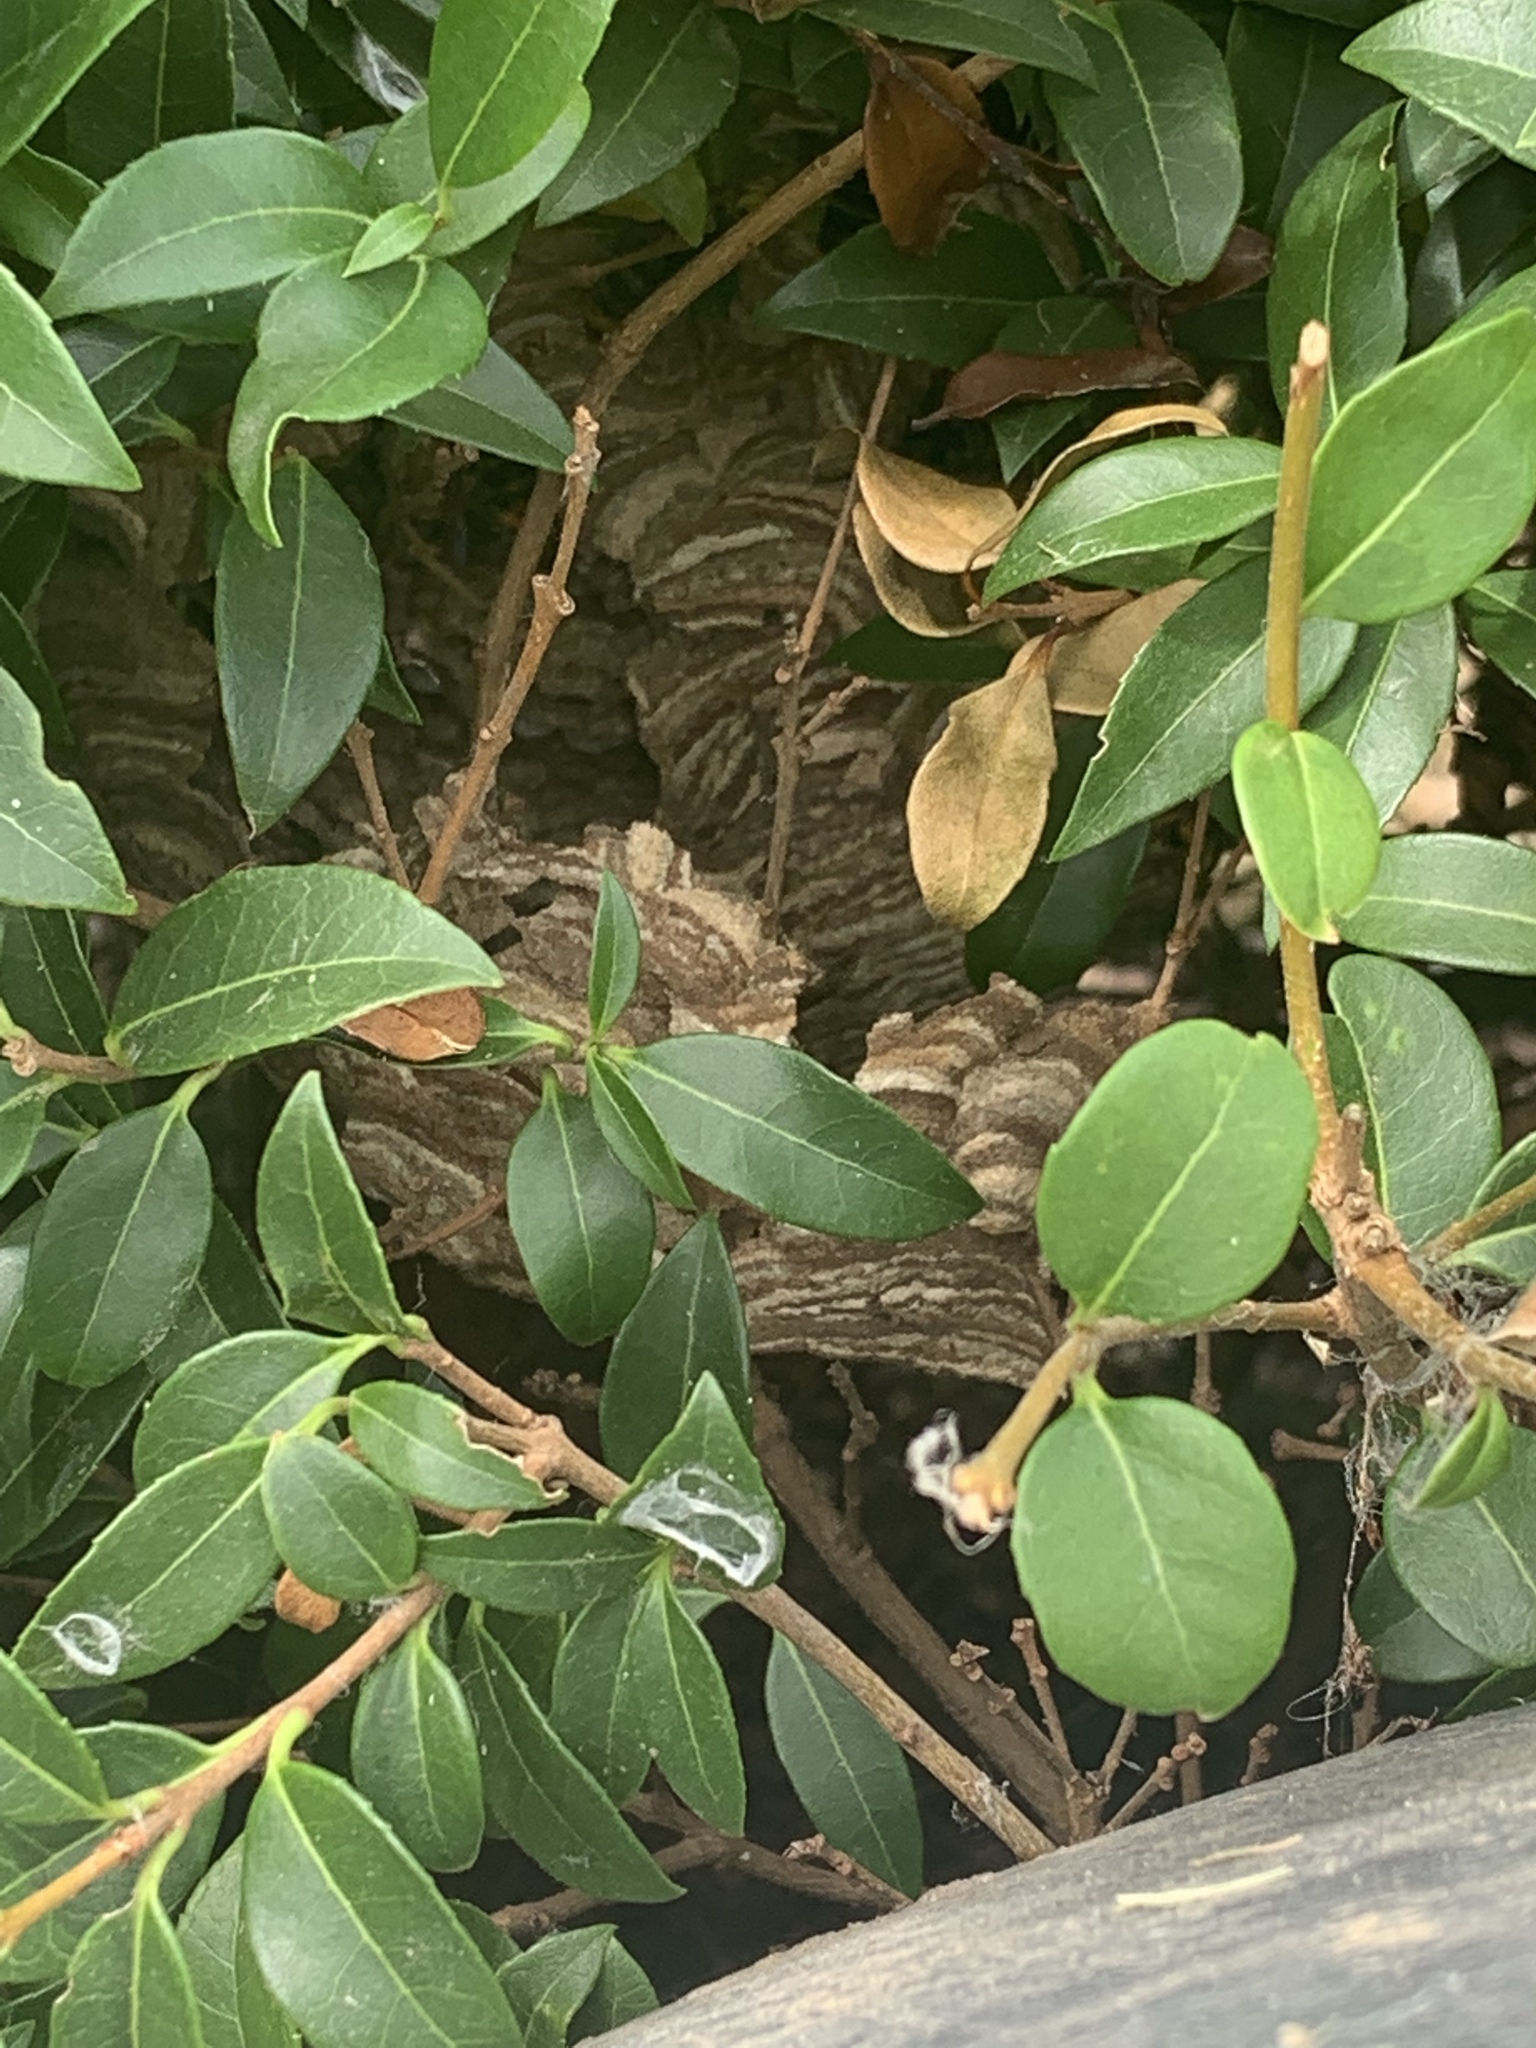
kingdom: Animalia
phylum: Arthropoda
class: Insecta
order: Hymenoptera
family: Vespidae
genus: Vespa
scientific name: Vespa velutina
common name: Asian hornet
